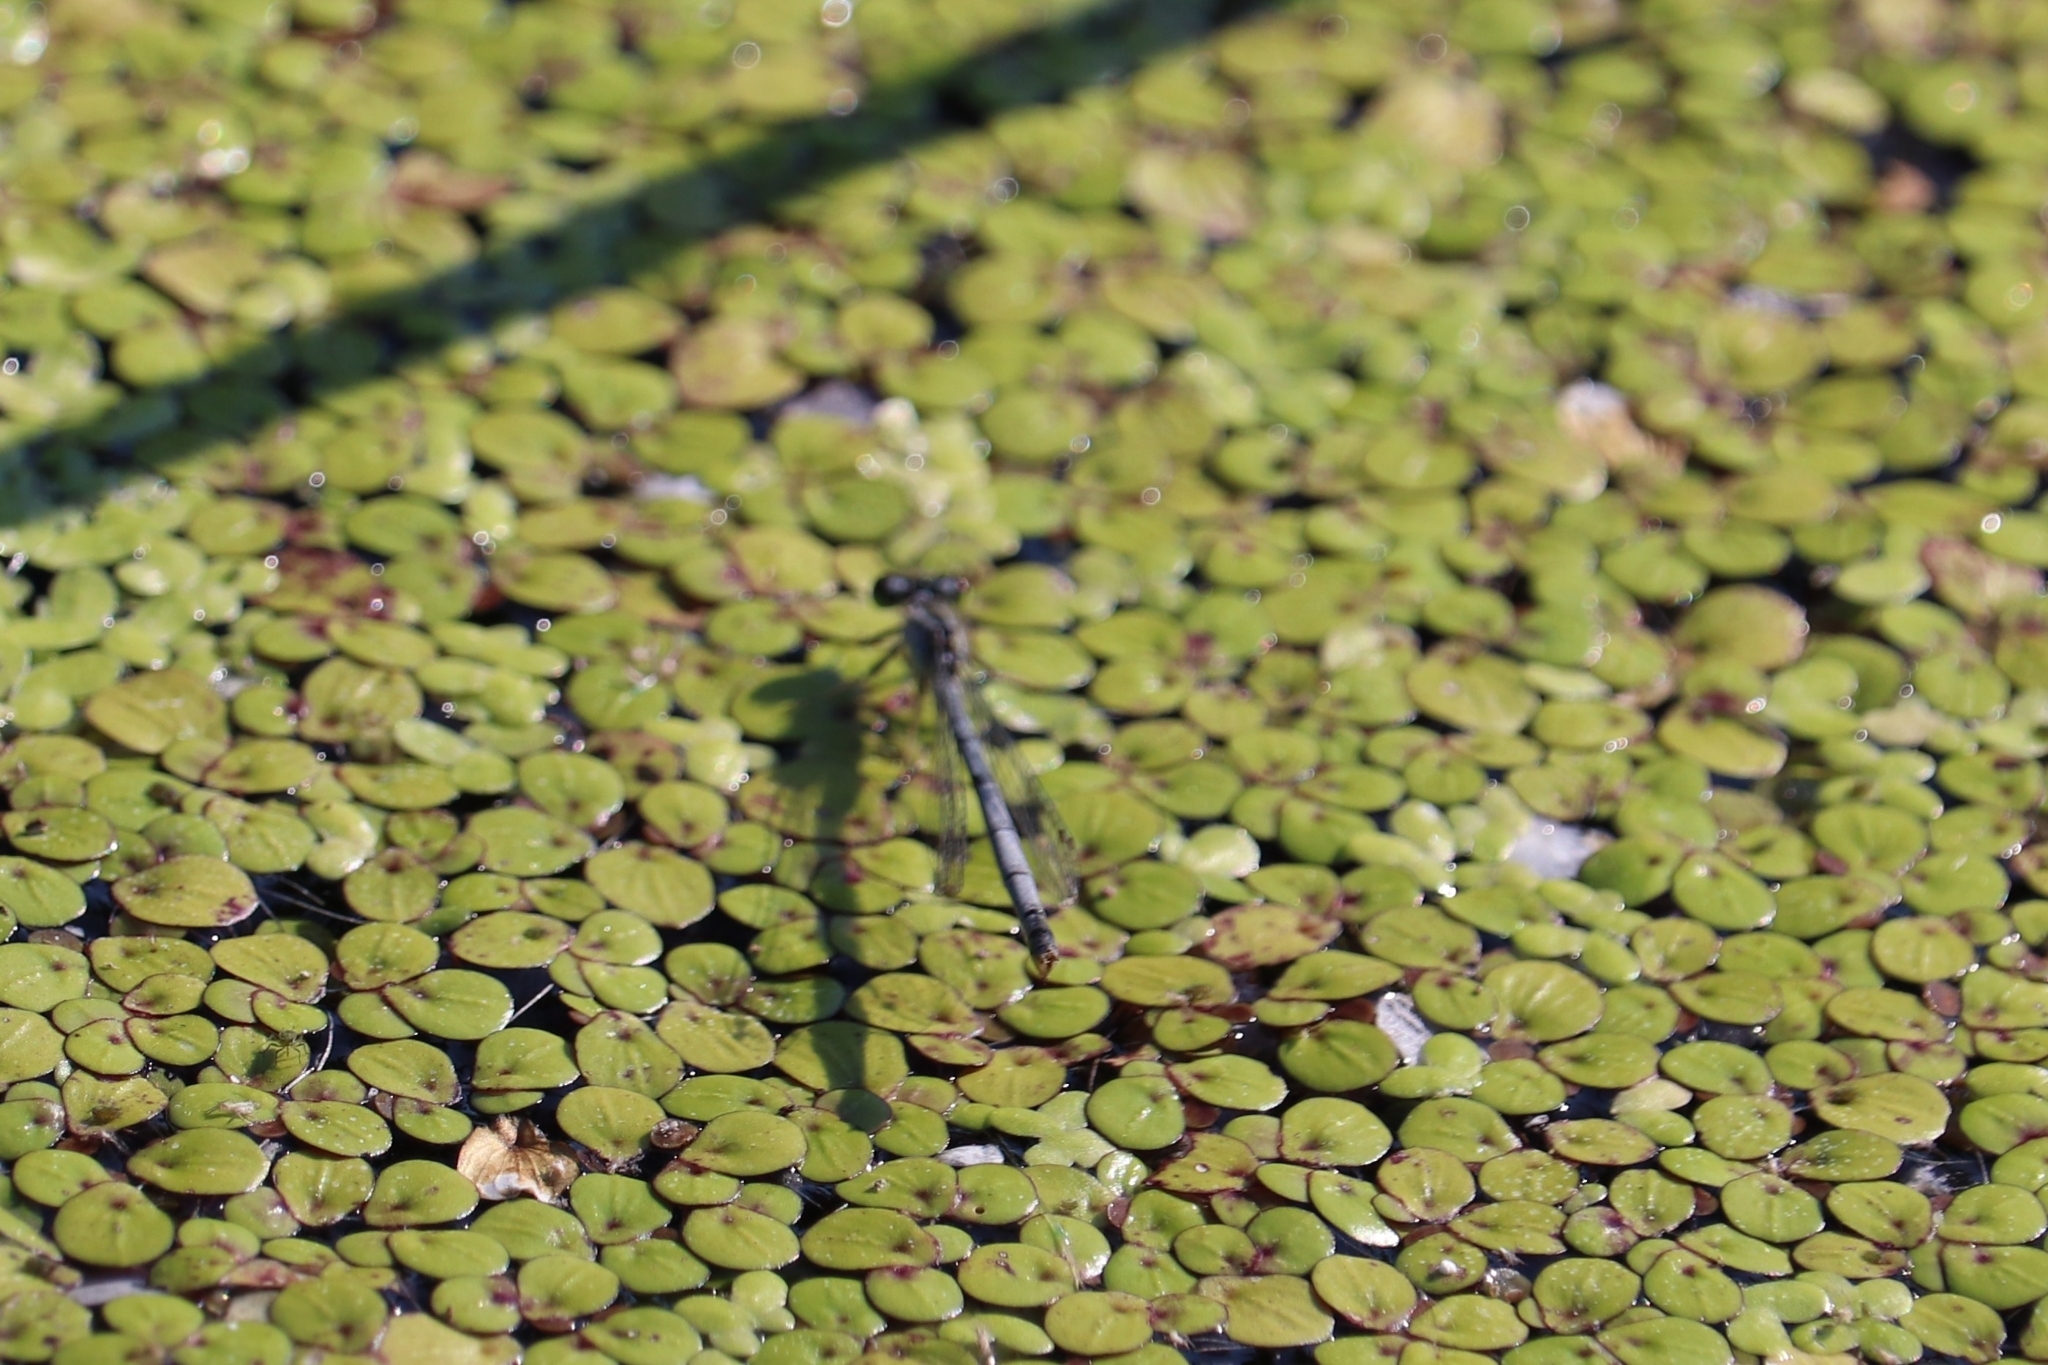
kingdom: Animalia
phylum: Arthropoda
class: Insecta
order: Odonata
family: Coenagrionidae
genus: Ischnura
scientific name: Ischnura verticalis
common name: Eastern forktail
